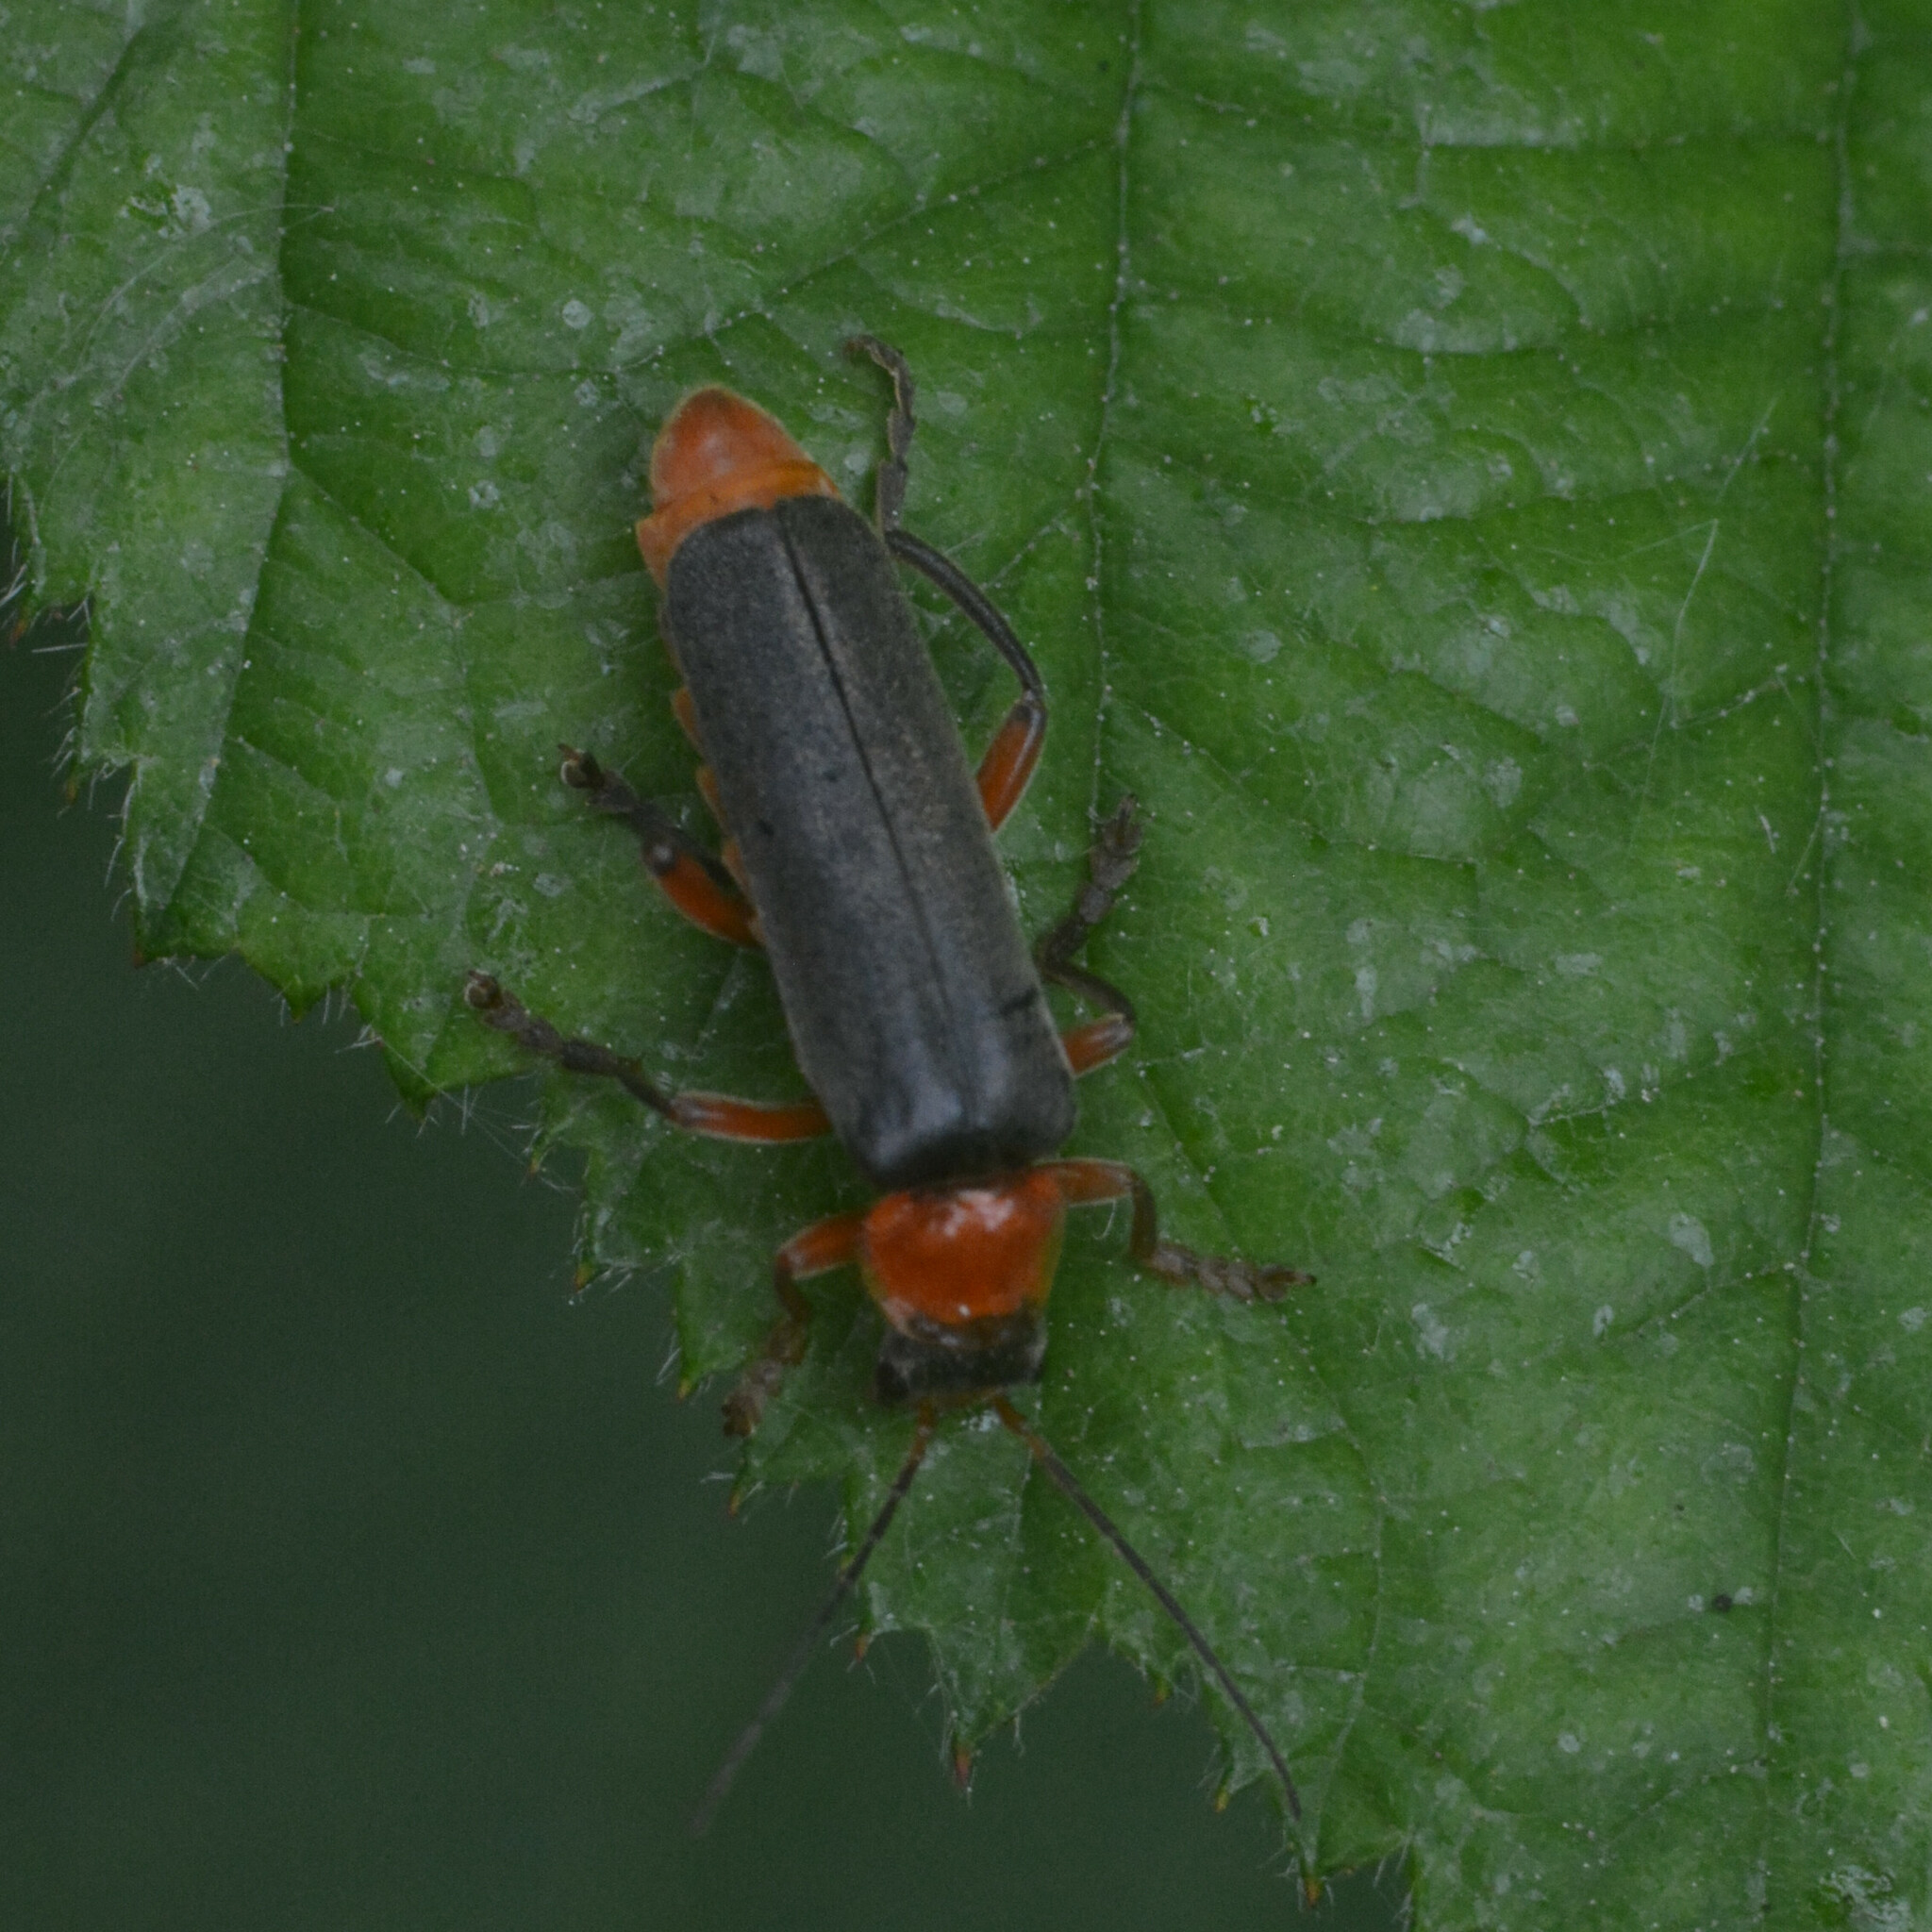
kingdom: Animalia
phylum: Arthropoda
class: Insecta
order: Coleoptera
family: Cantharidae
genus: Cantharis
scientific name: Cantharis pellucida
